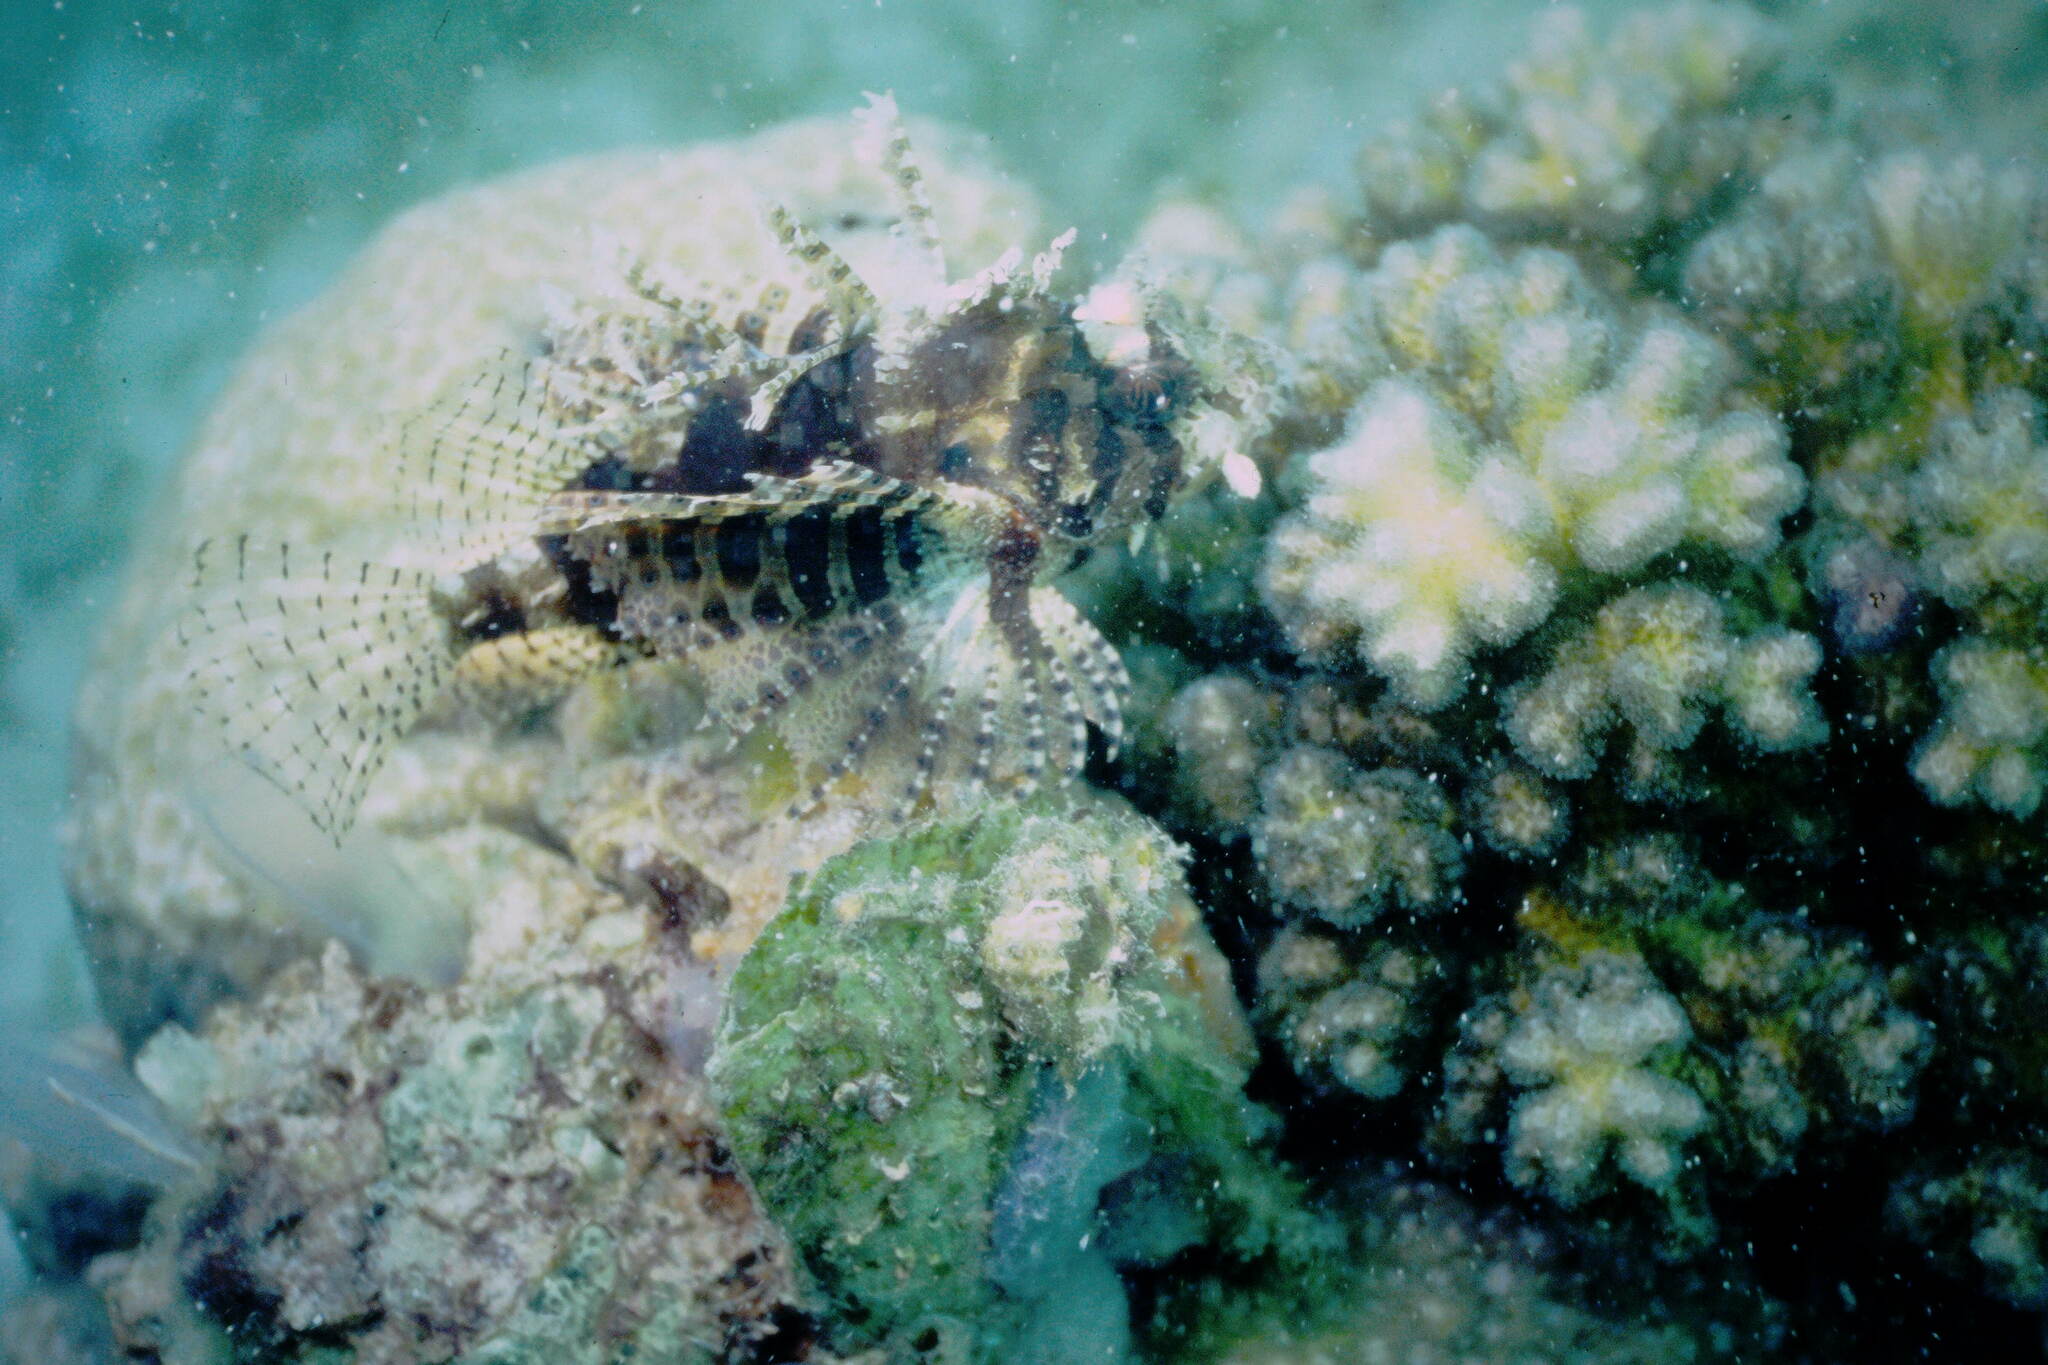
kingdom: Animalia
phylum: Chordata
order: Scorpaeniformes
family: Scorpaenidae
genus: Dendrochirus
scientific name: Dendrochirus brachypterus
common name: Shortfin turkeyfish
